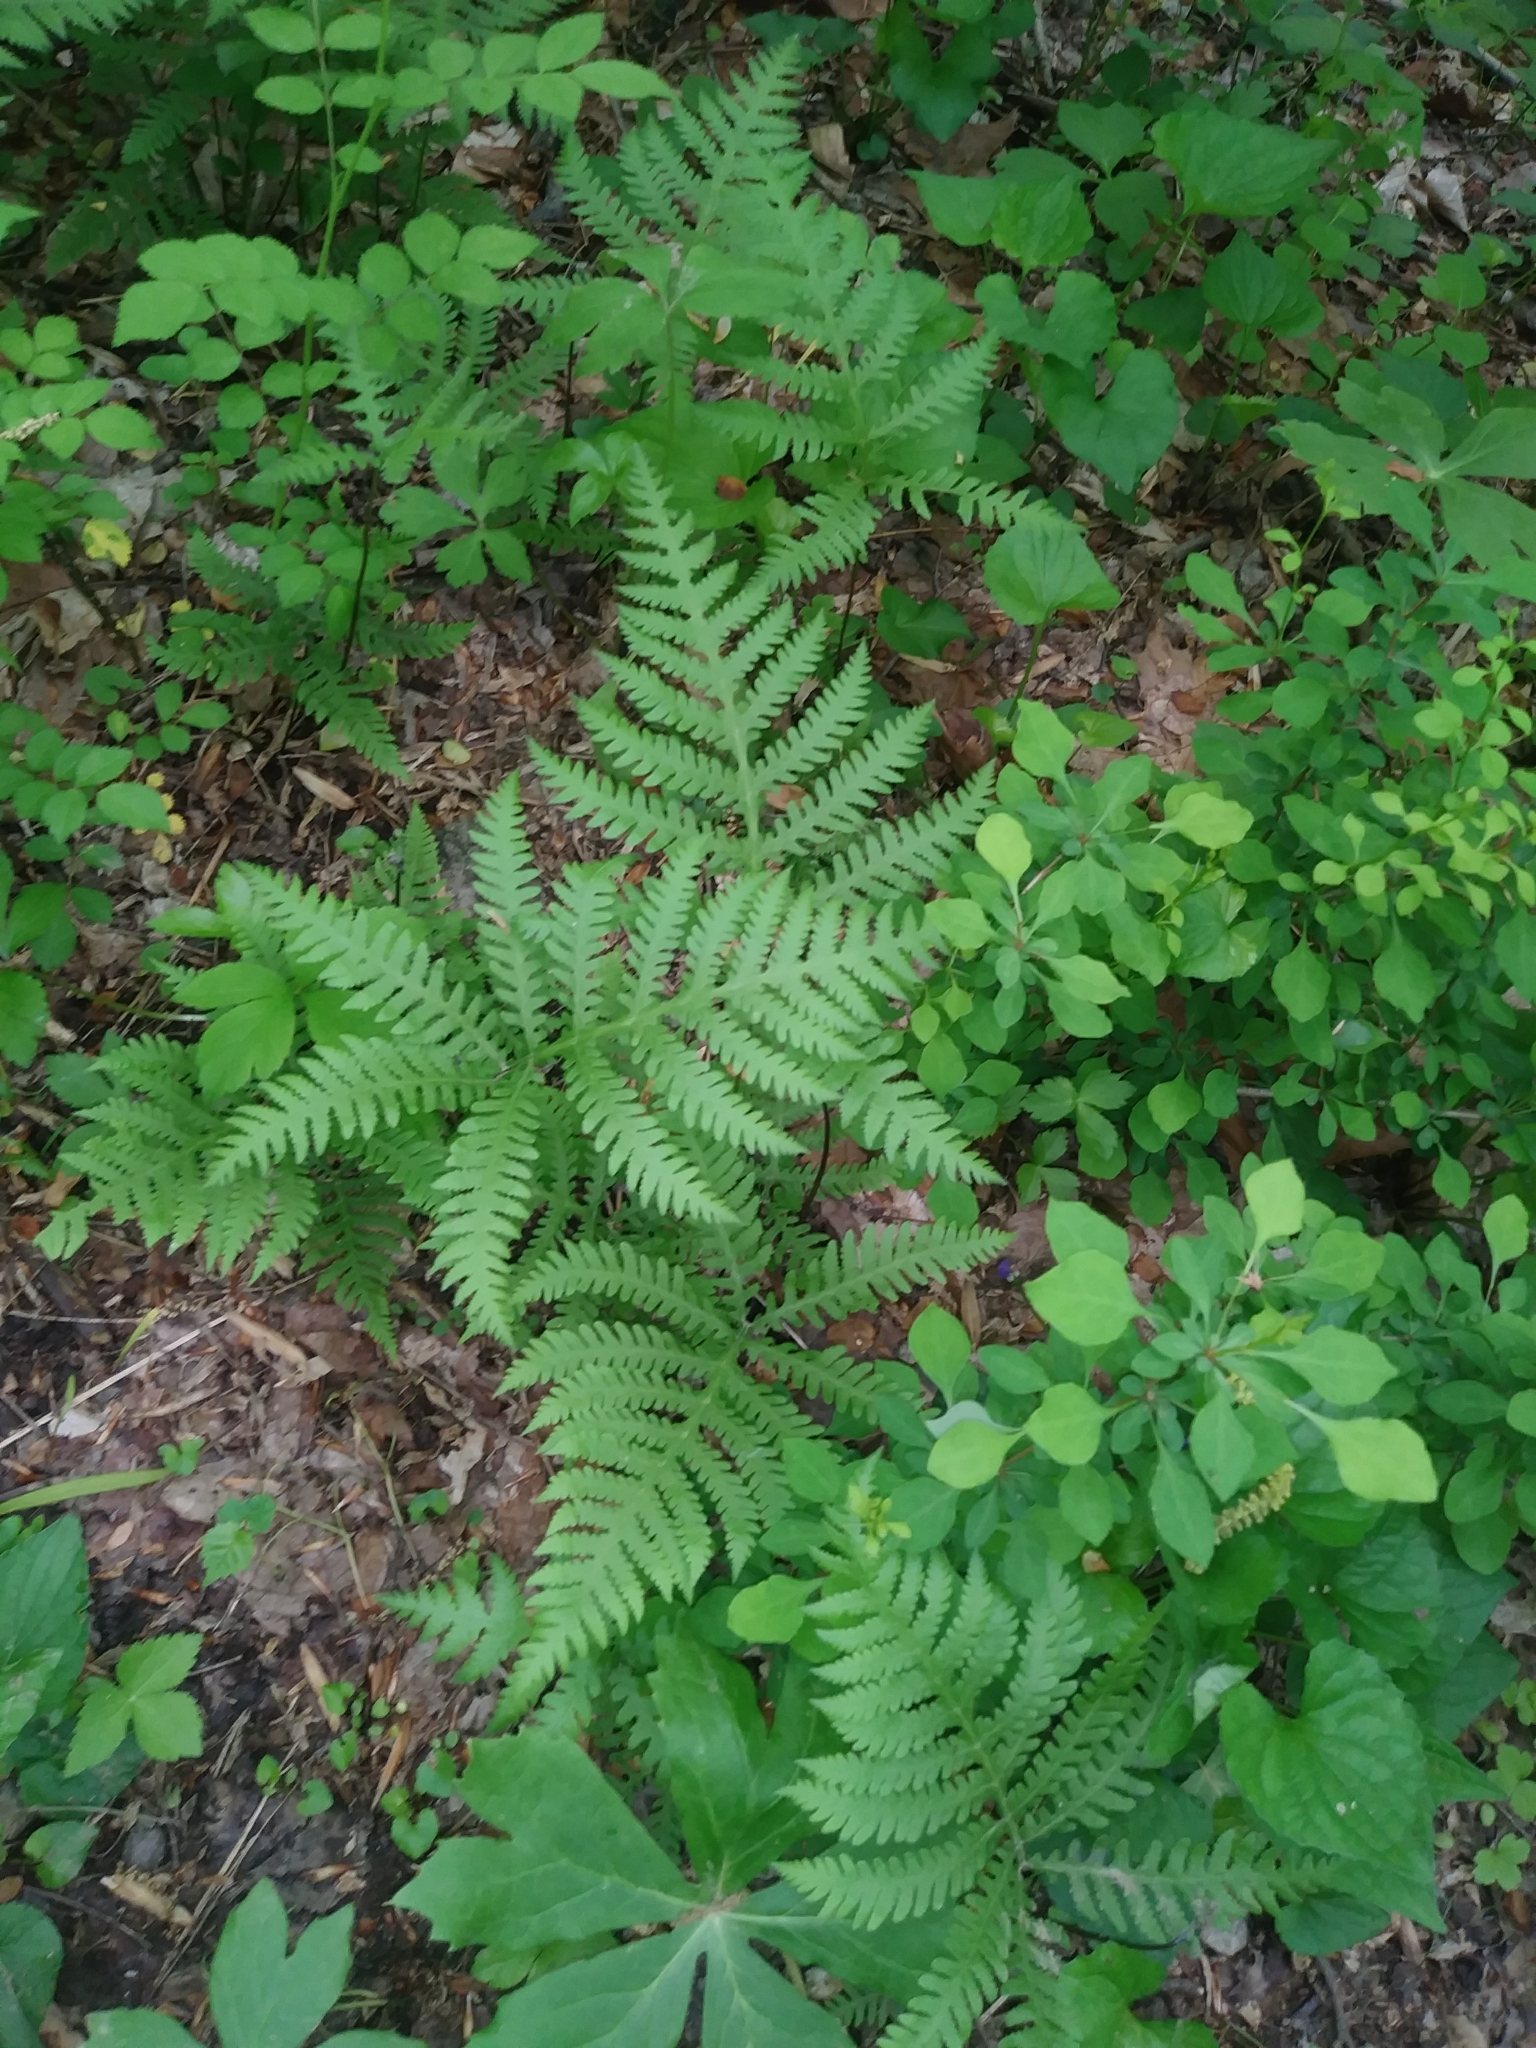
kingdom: Plantae
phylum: Tracheophyta
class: Polypodiopsida
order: Polypodiales
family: Thelypteridaceae
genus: Phegopteris
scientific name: Phegopteris hexagonoptera
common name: Broad beech fern
